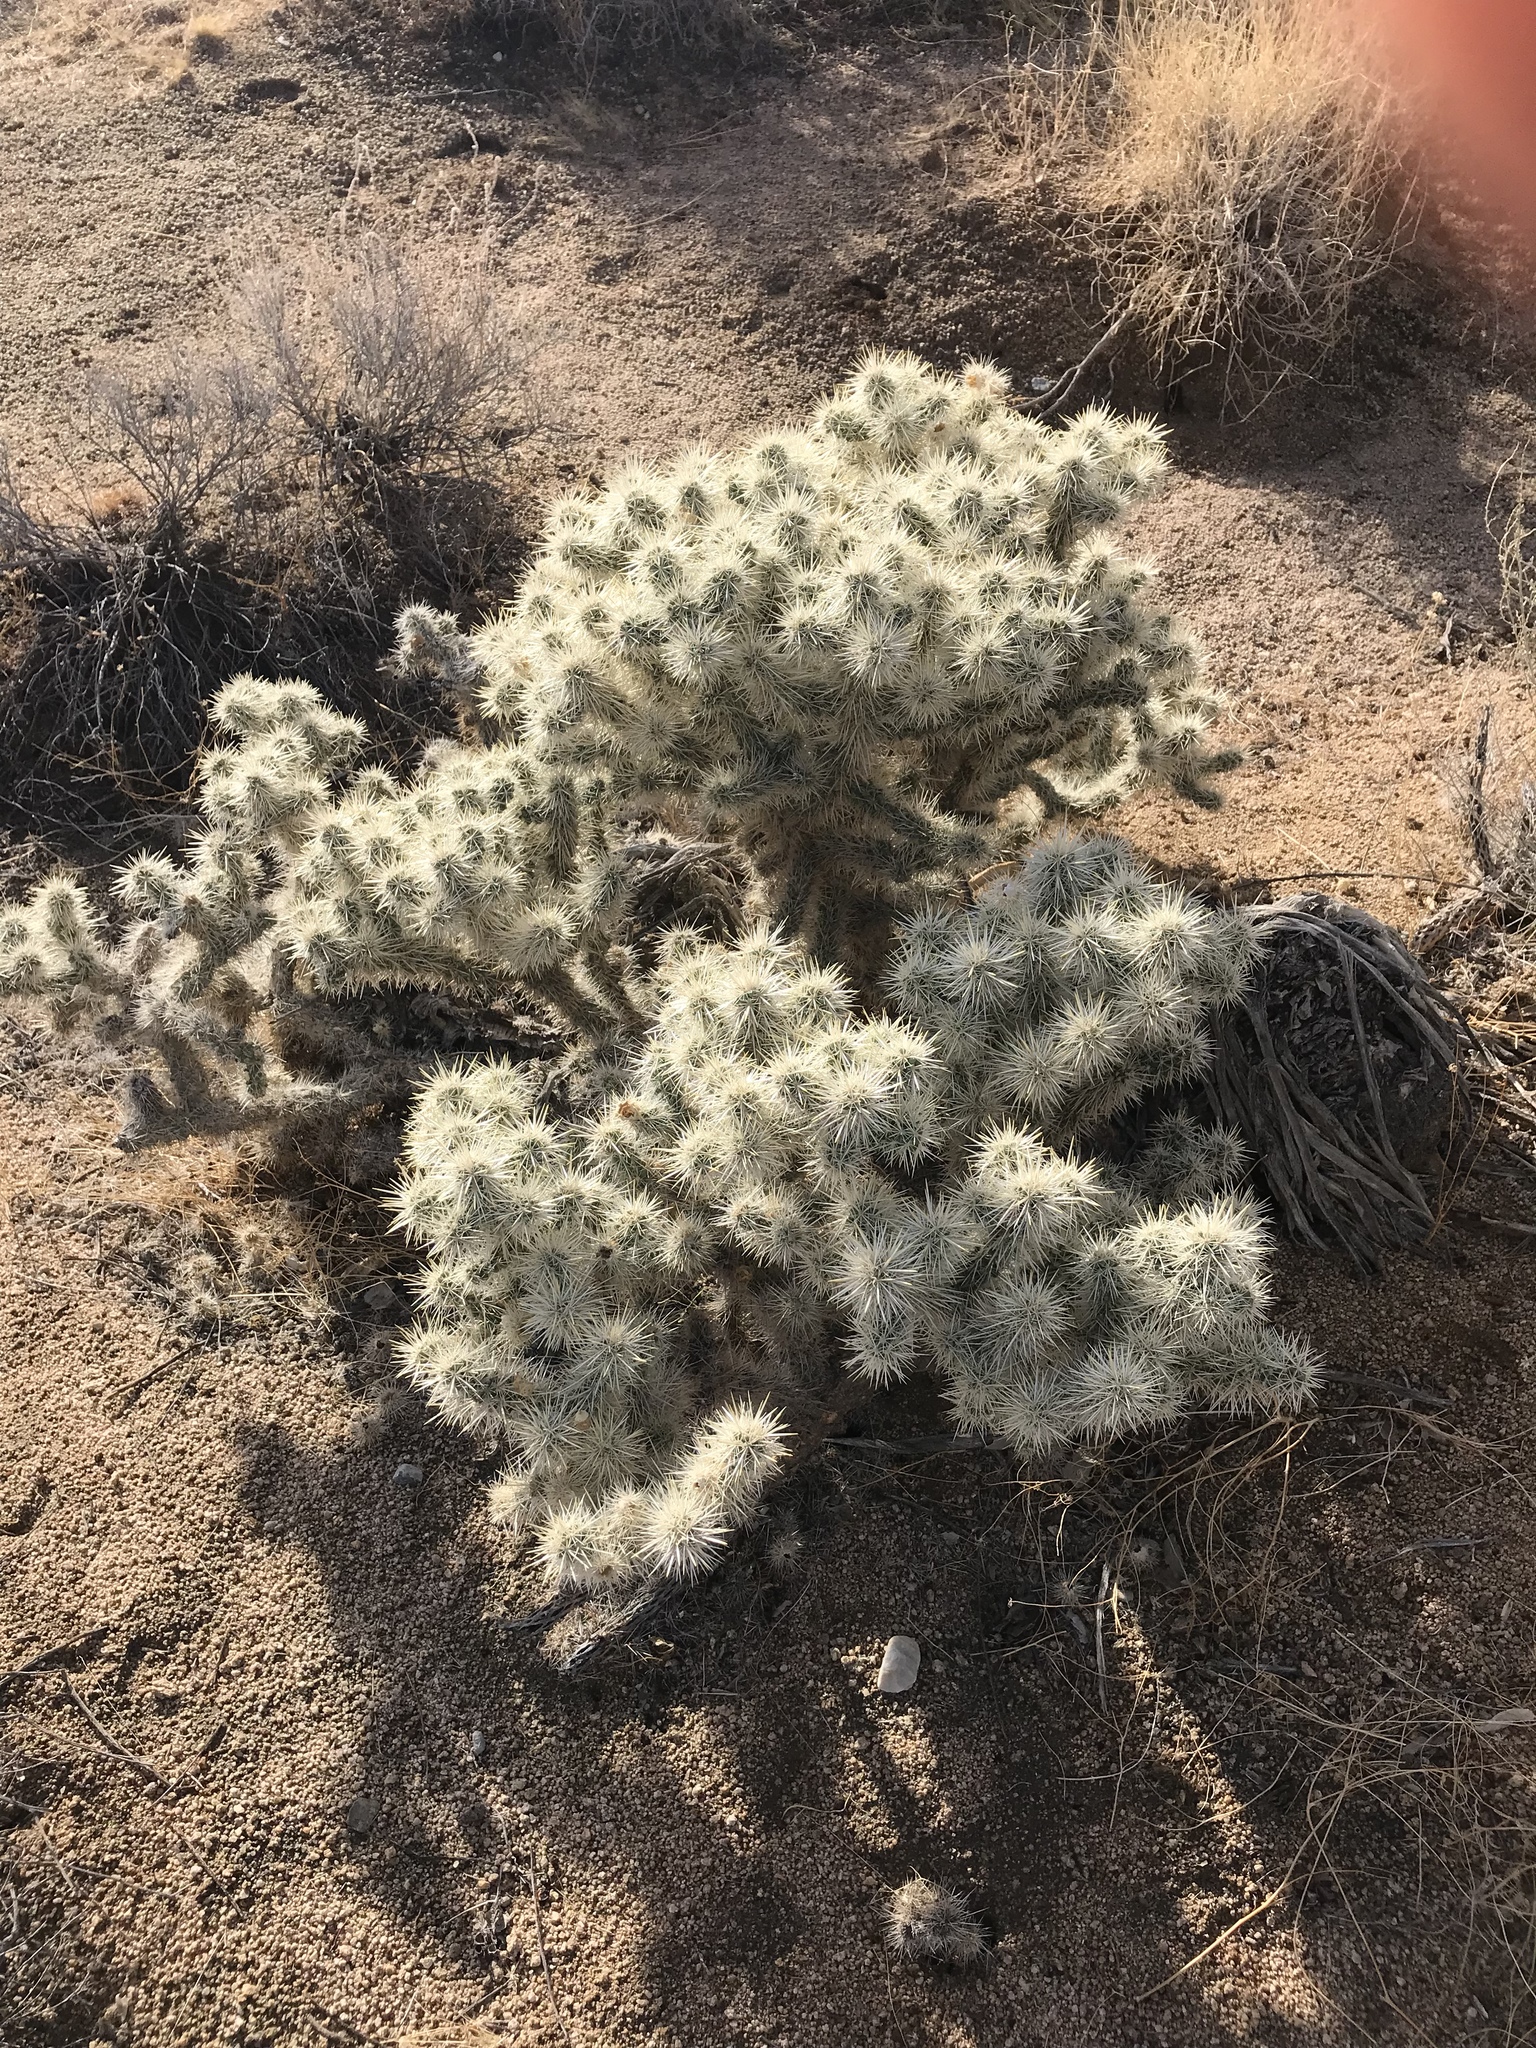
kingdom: Plantae
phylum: Tracheophyta
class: Magnoliopsida
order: Caryophyllales
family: Cactaceae
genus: Cylindropuntia
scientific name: Cylindropuntia echinocarpa
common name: Ground cholla
